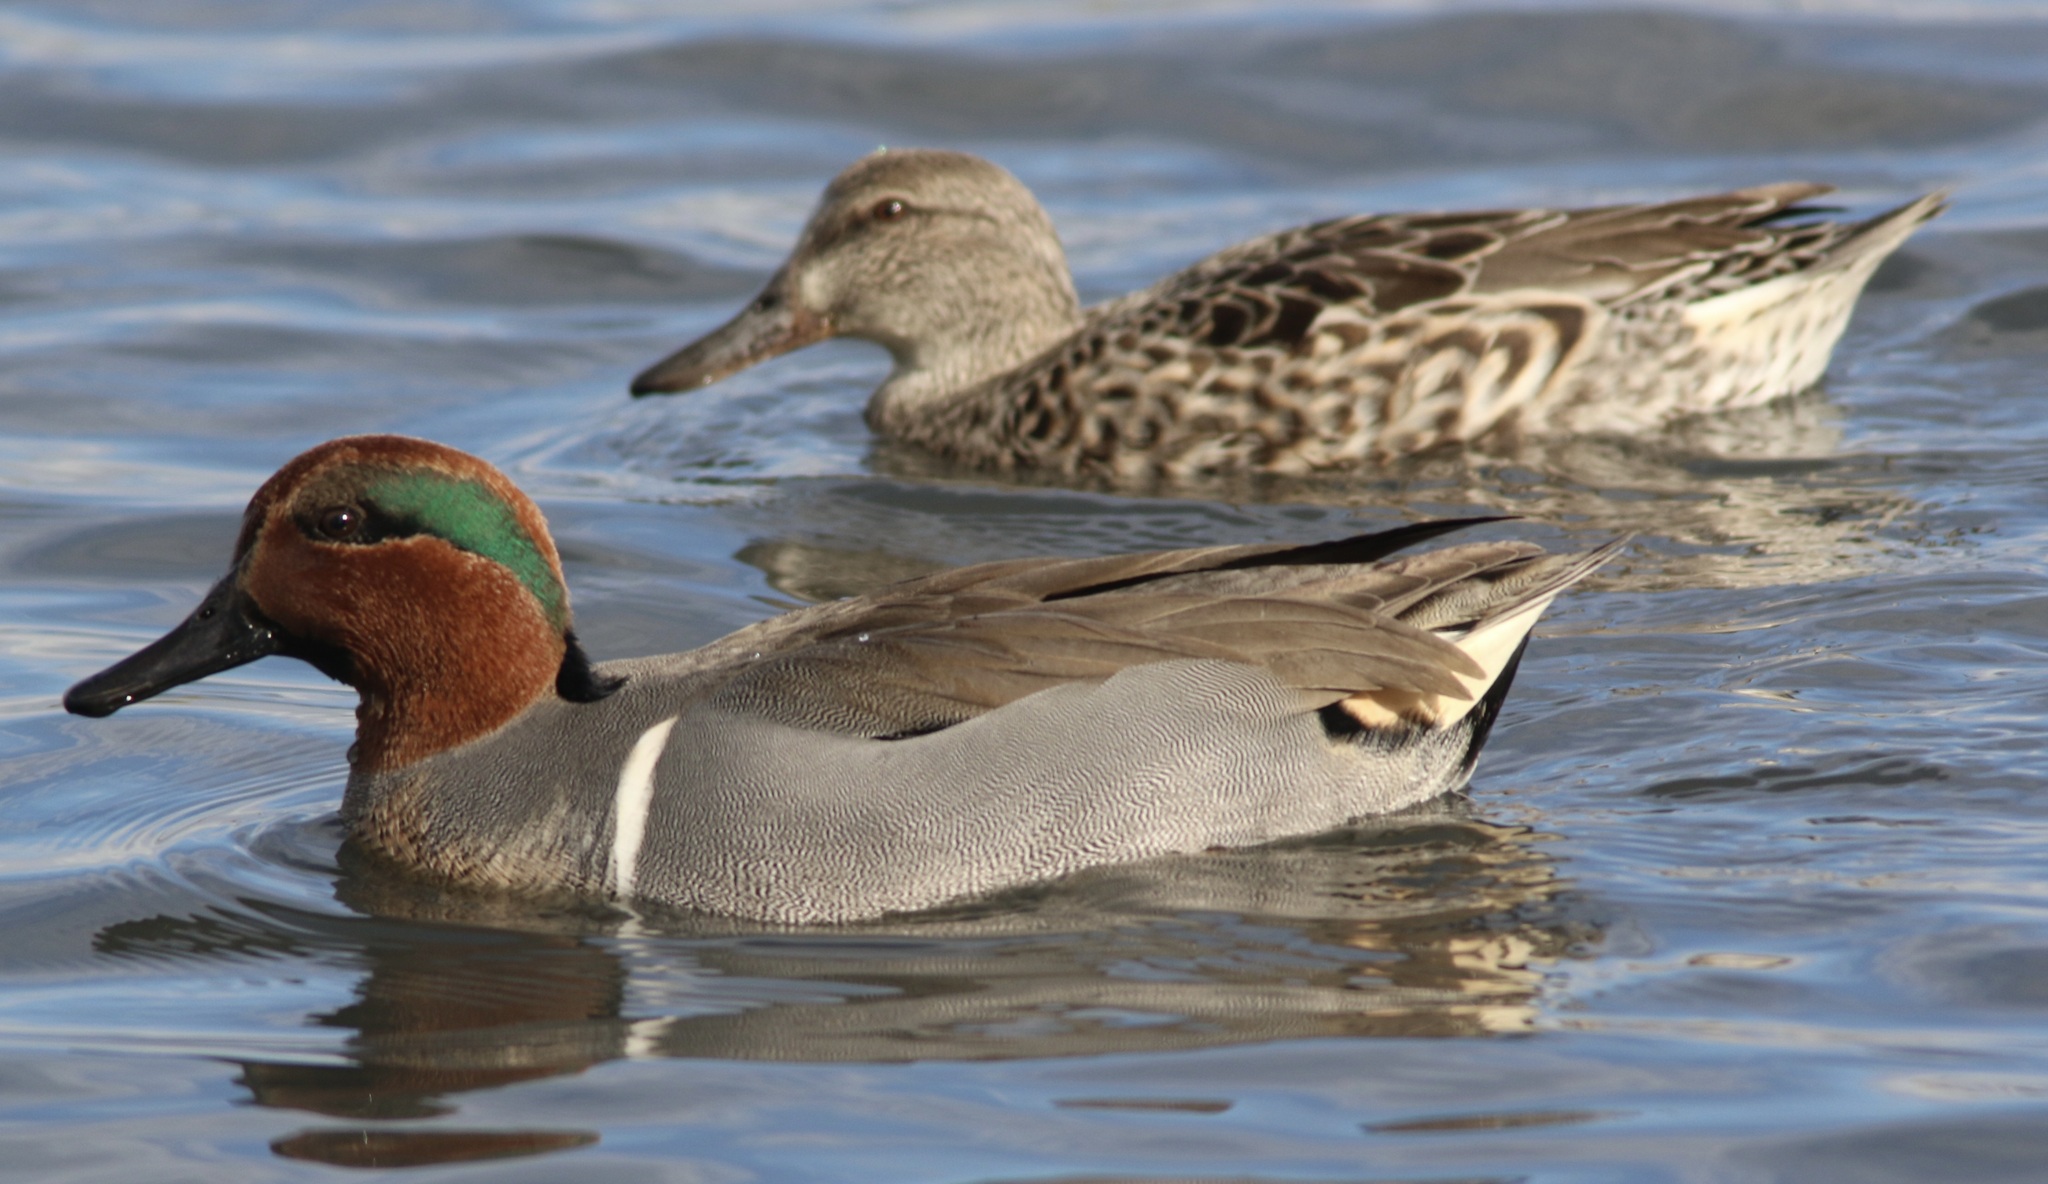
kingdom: Animalia
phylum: Chordata
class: Aves
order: Anseriformes
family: Anatidae
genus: Anas
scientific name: Anas crecca
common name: Eurasian teal
